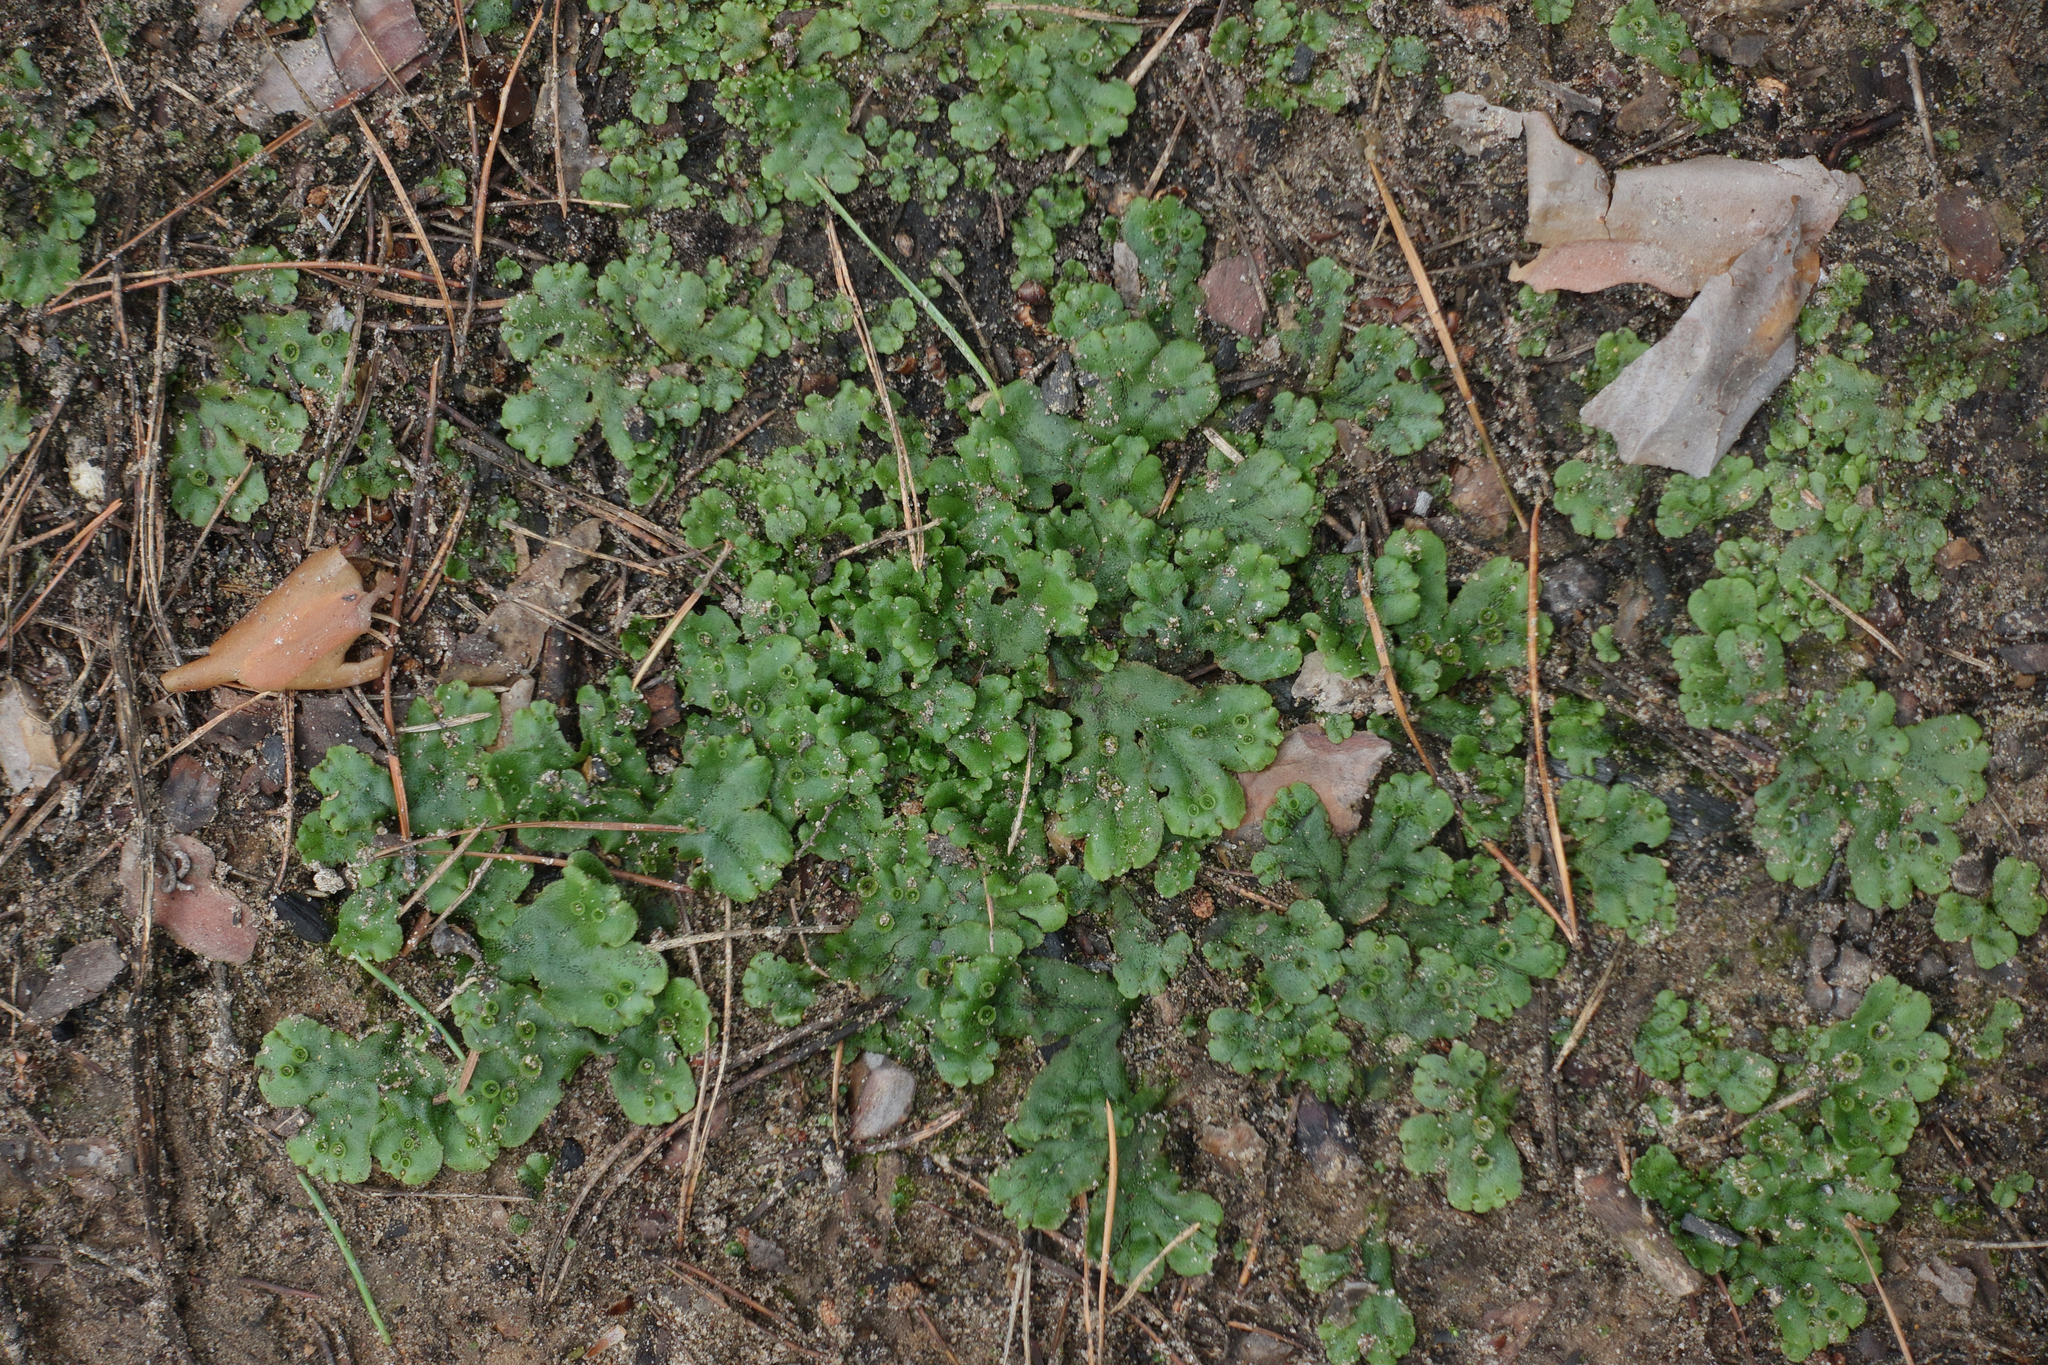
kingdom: Plantae
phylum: Marchantiophyta
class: Marchantiopsida
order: Marchantiales
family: Marchantiaceae
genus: Marchantia
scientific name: Marchantia polymorpha
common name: Common liverwort
